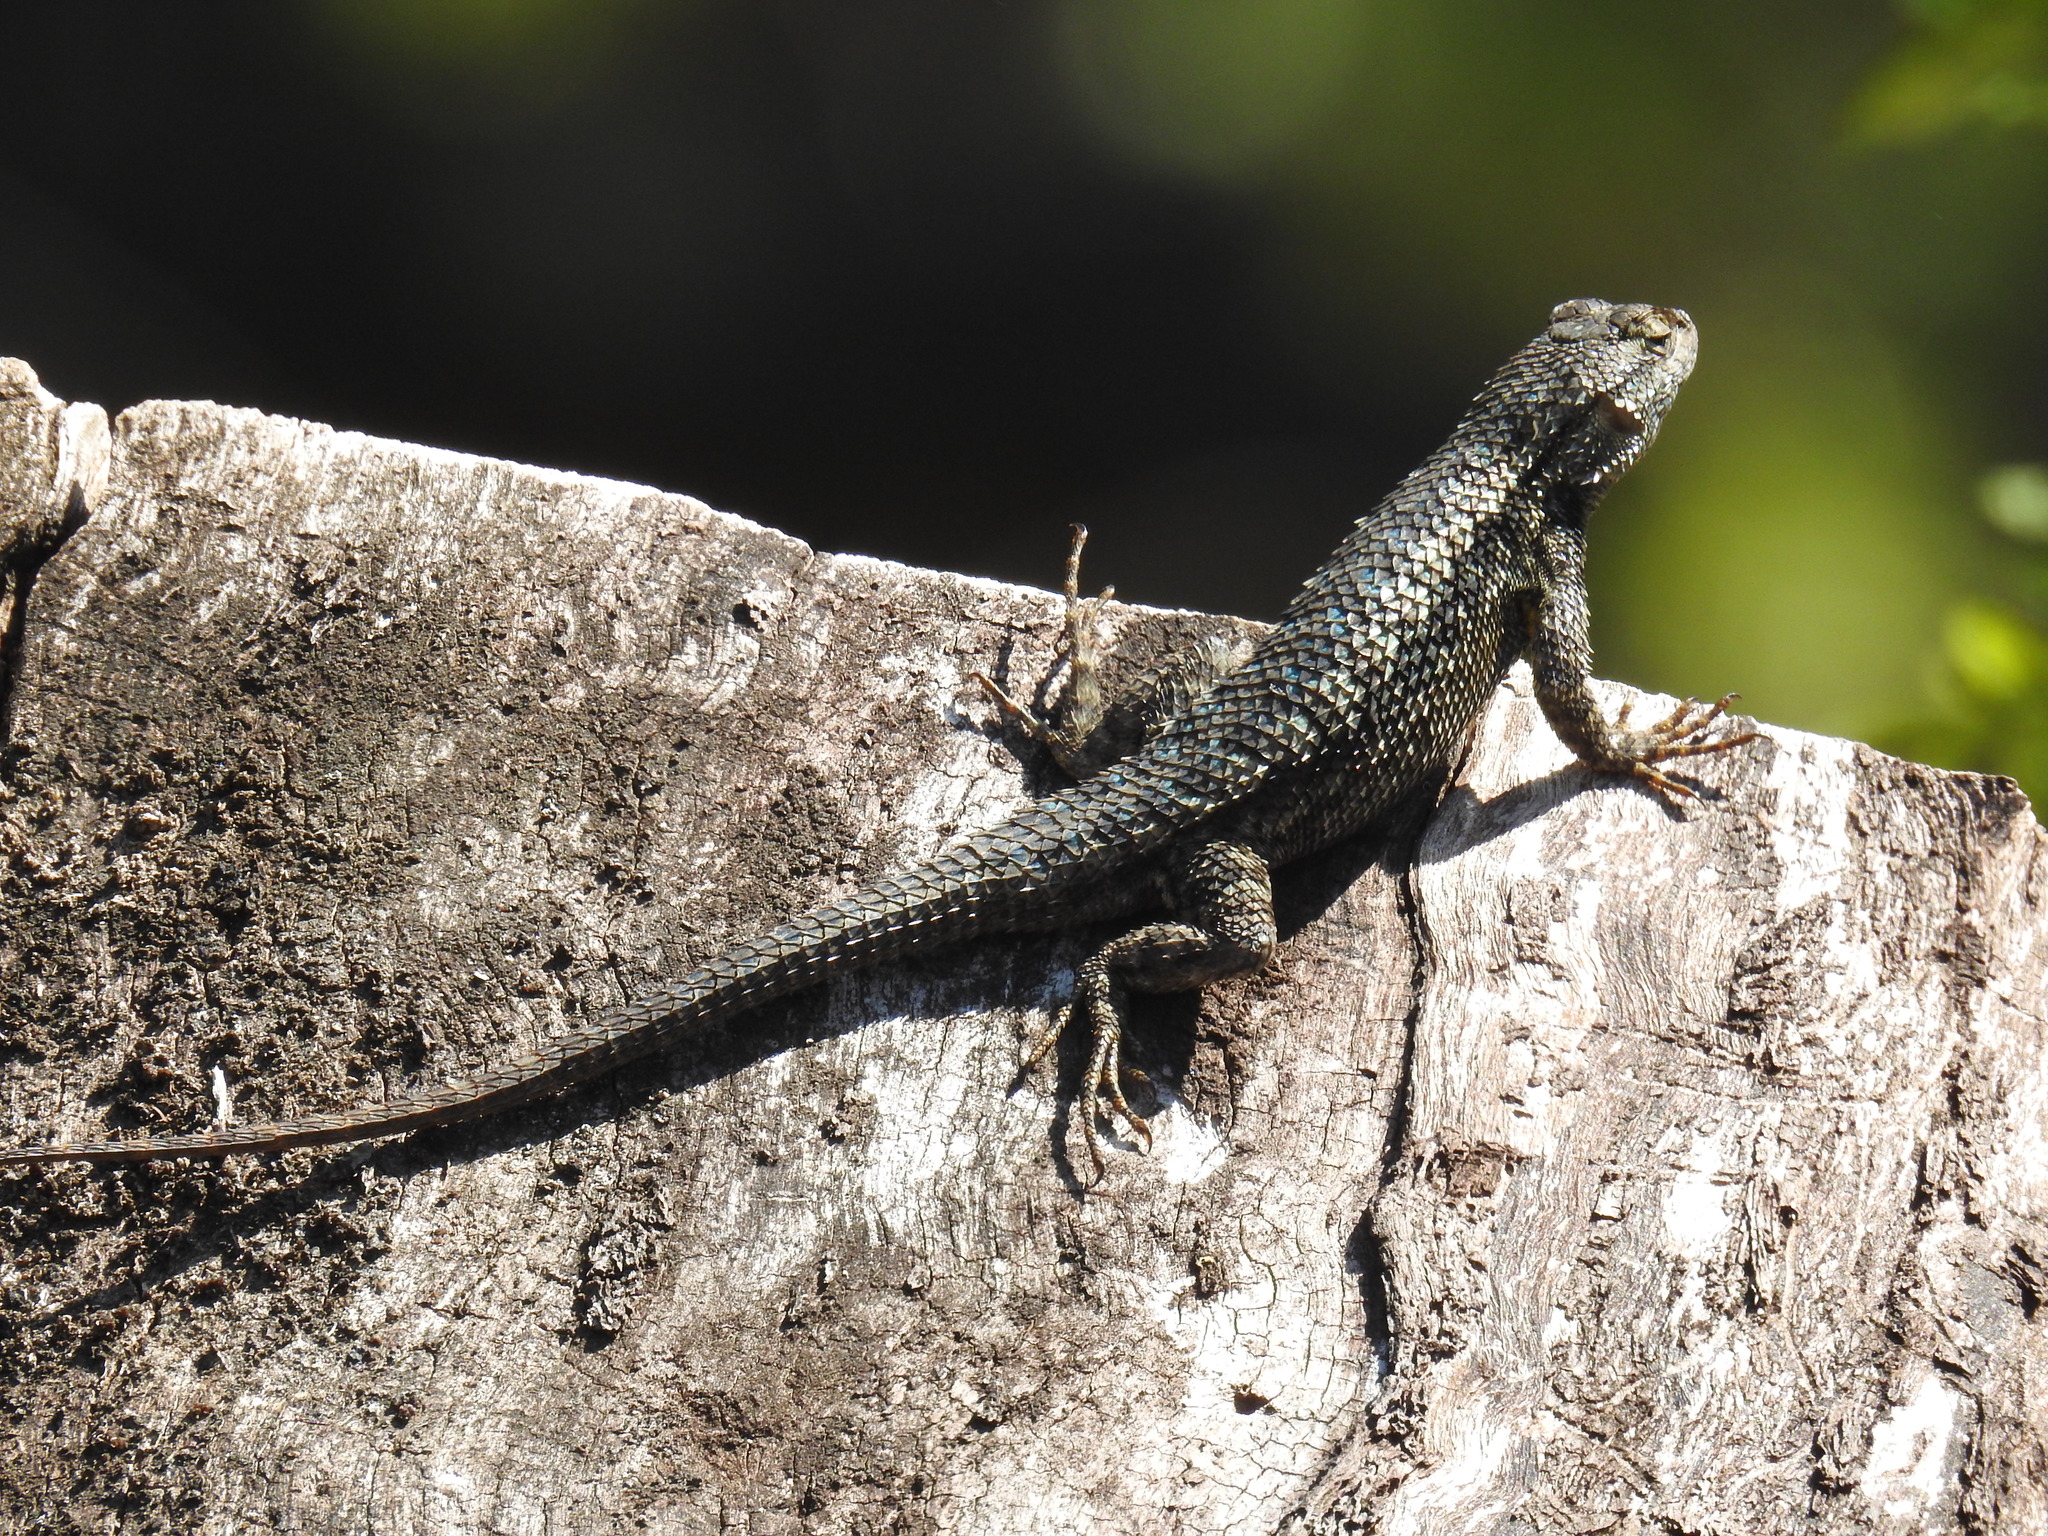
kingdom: Animalia
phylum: Chordata
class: Squamata
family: Phrynosomatidae
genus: Sceloporus
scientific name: Sceloporus occidentalis
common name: Western fence lizard
